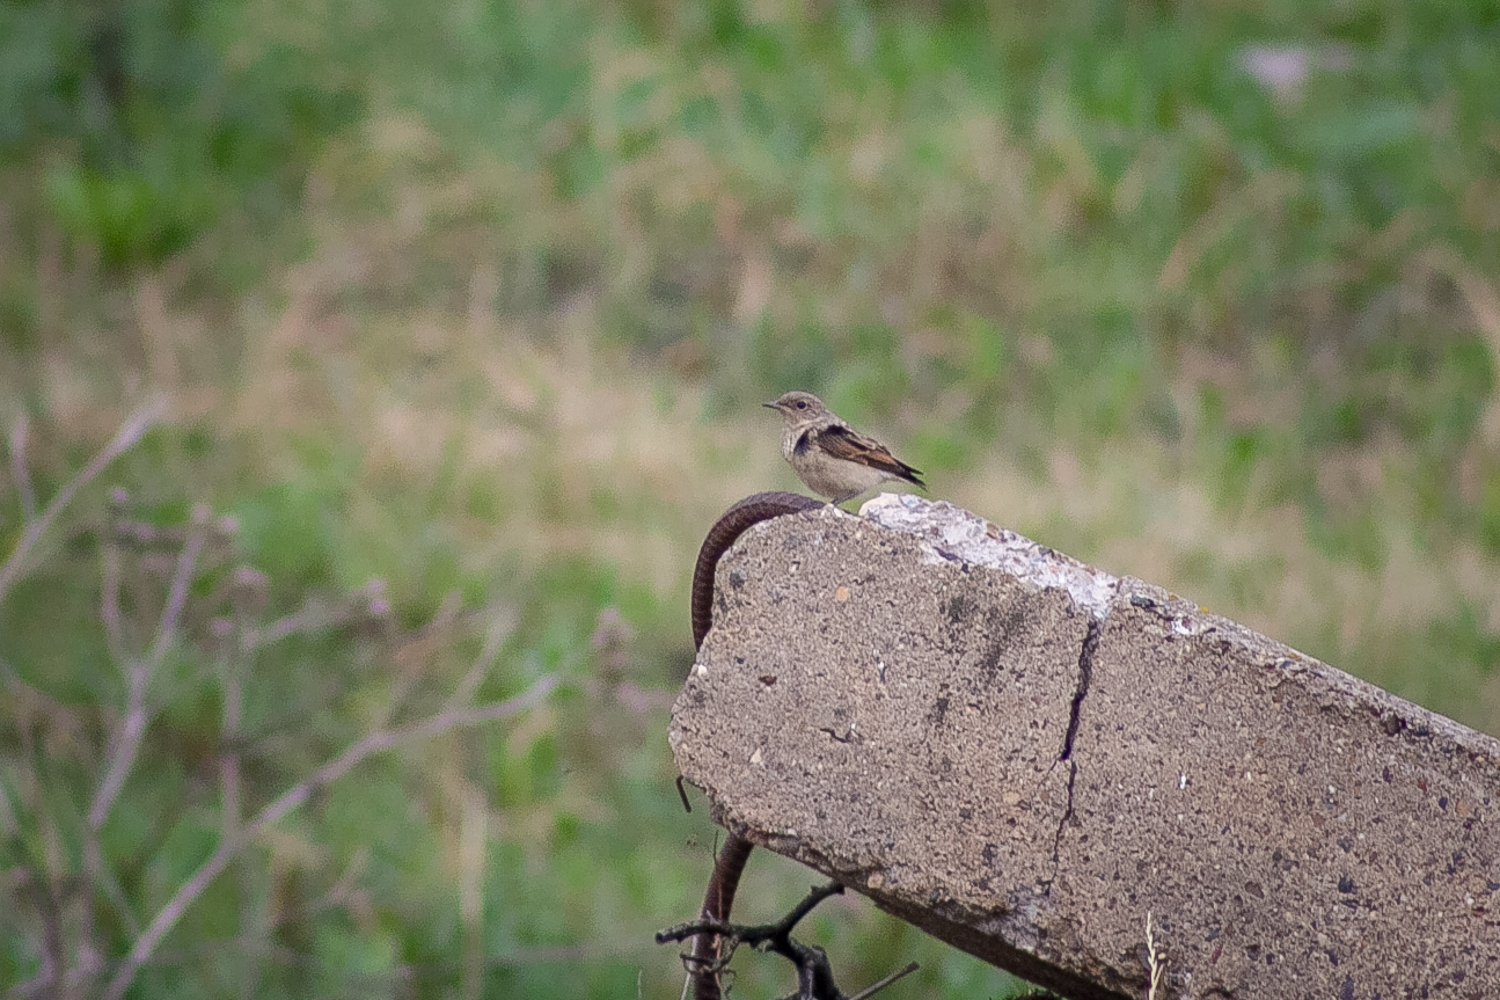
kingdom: Animalia
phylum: Chordata
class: Aves
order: Passeriformes
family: Muscicapidae
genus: Oenanthe
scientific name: Oenanthe oenanthe
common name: Northern wheatear
